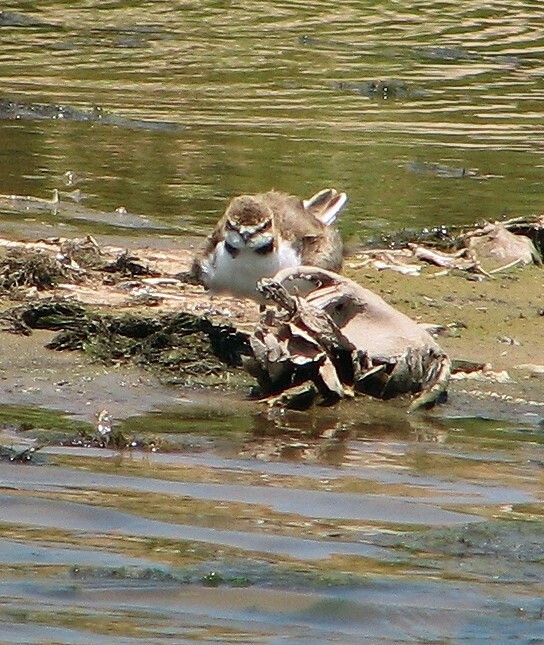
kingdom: Animalia
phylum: Chordata
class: Aves
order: Charadriiformes
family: Charadriidae
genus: Anarhynchus
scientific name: Anarhynchus
